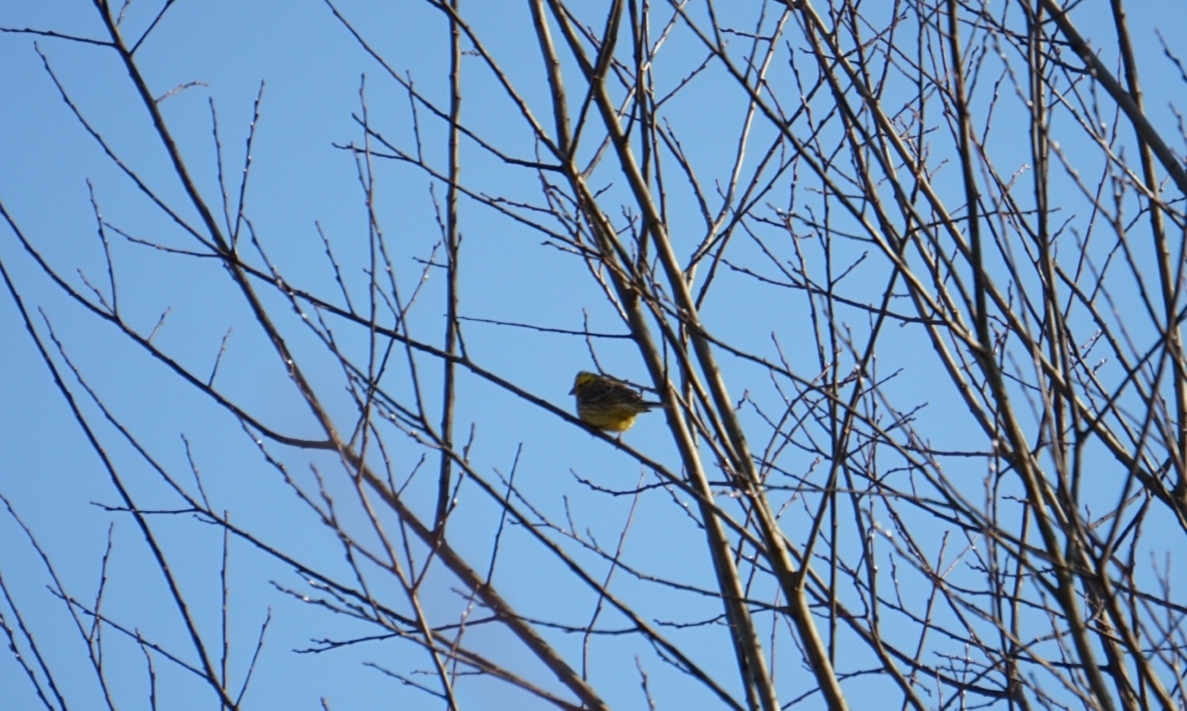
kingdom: Animalia
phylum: Chordata
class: Aves
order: Passeriformes
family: Emberizidae
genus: Emberiza
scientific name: Emberiza citrinella
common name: Yellowhammer
